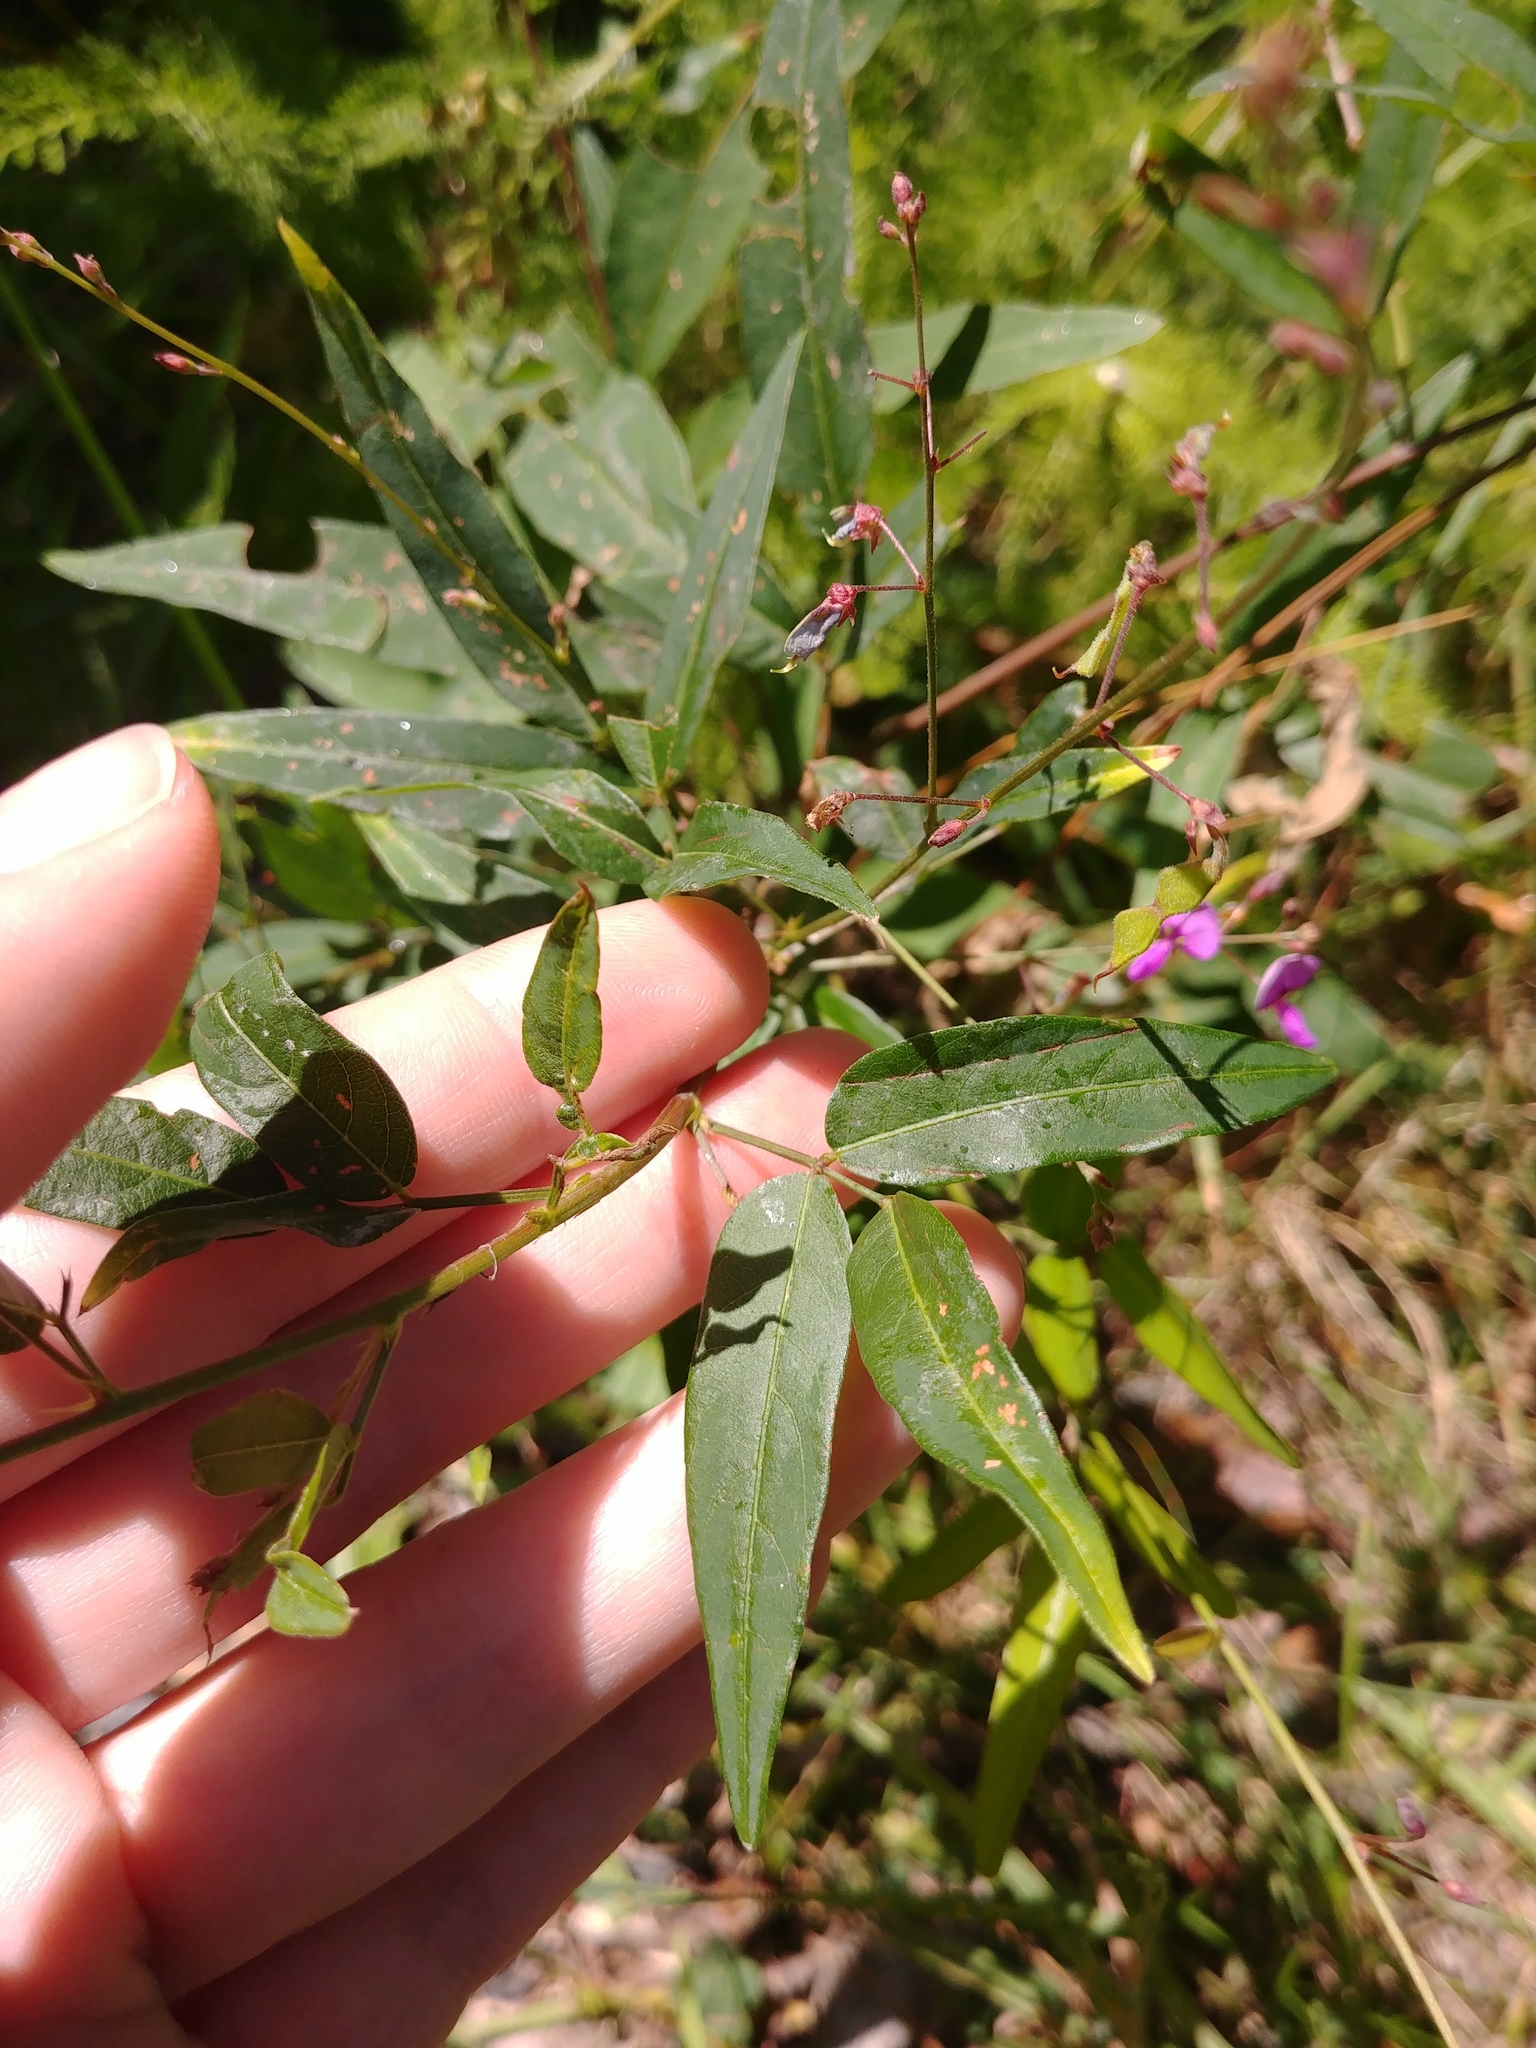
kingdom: Plantae
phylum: Tracheophyta
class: Magnoliopsida
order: Fabales
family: Fabaceae
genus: Desmodium
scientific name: Desmodium paniculatum
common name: Panicled tick-clover
